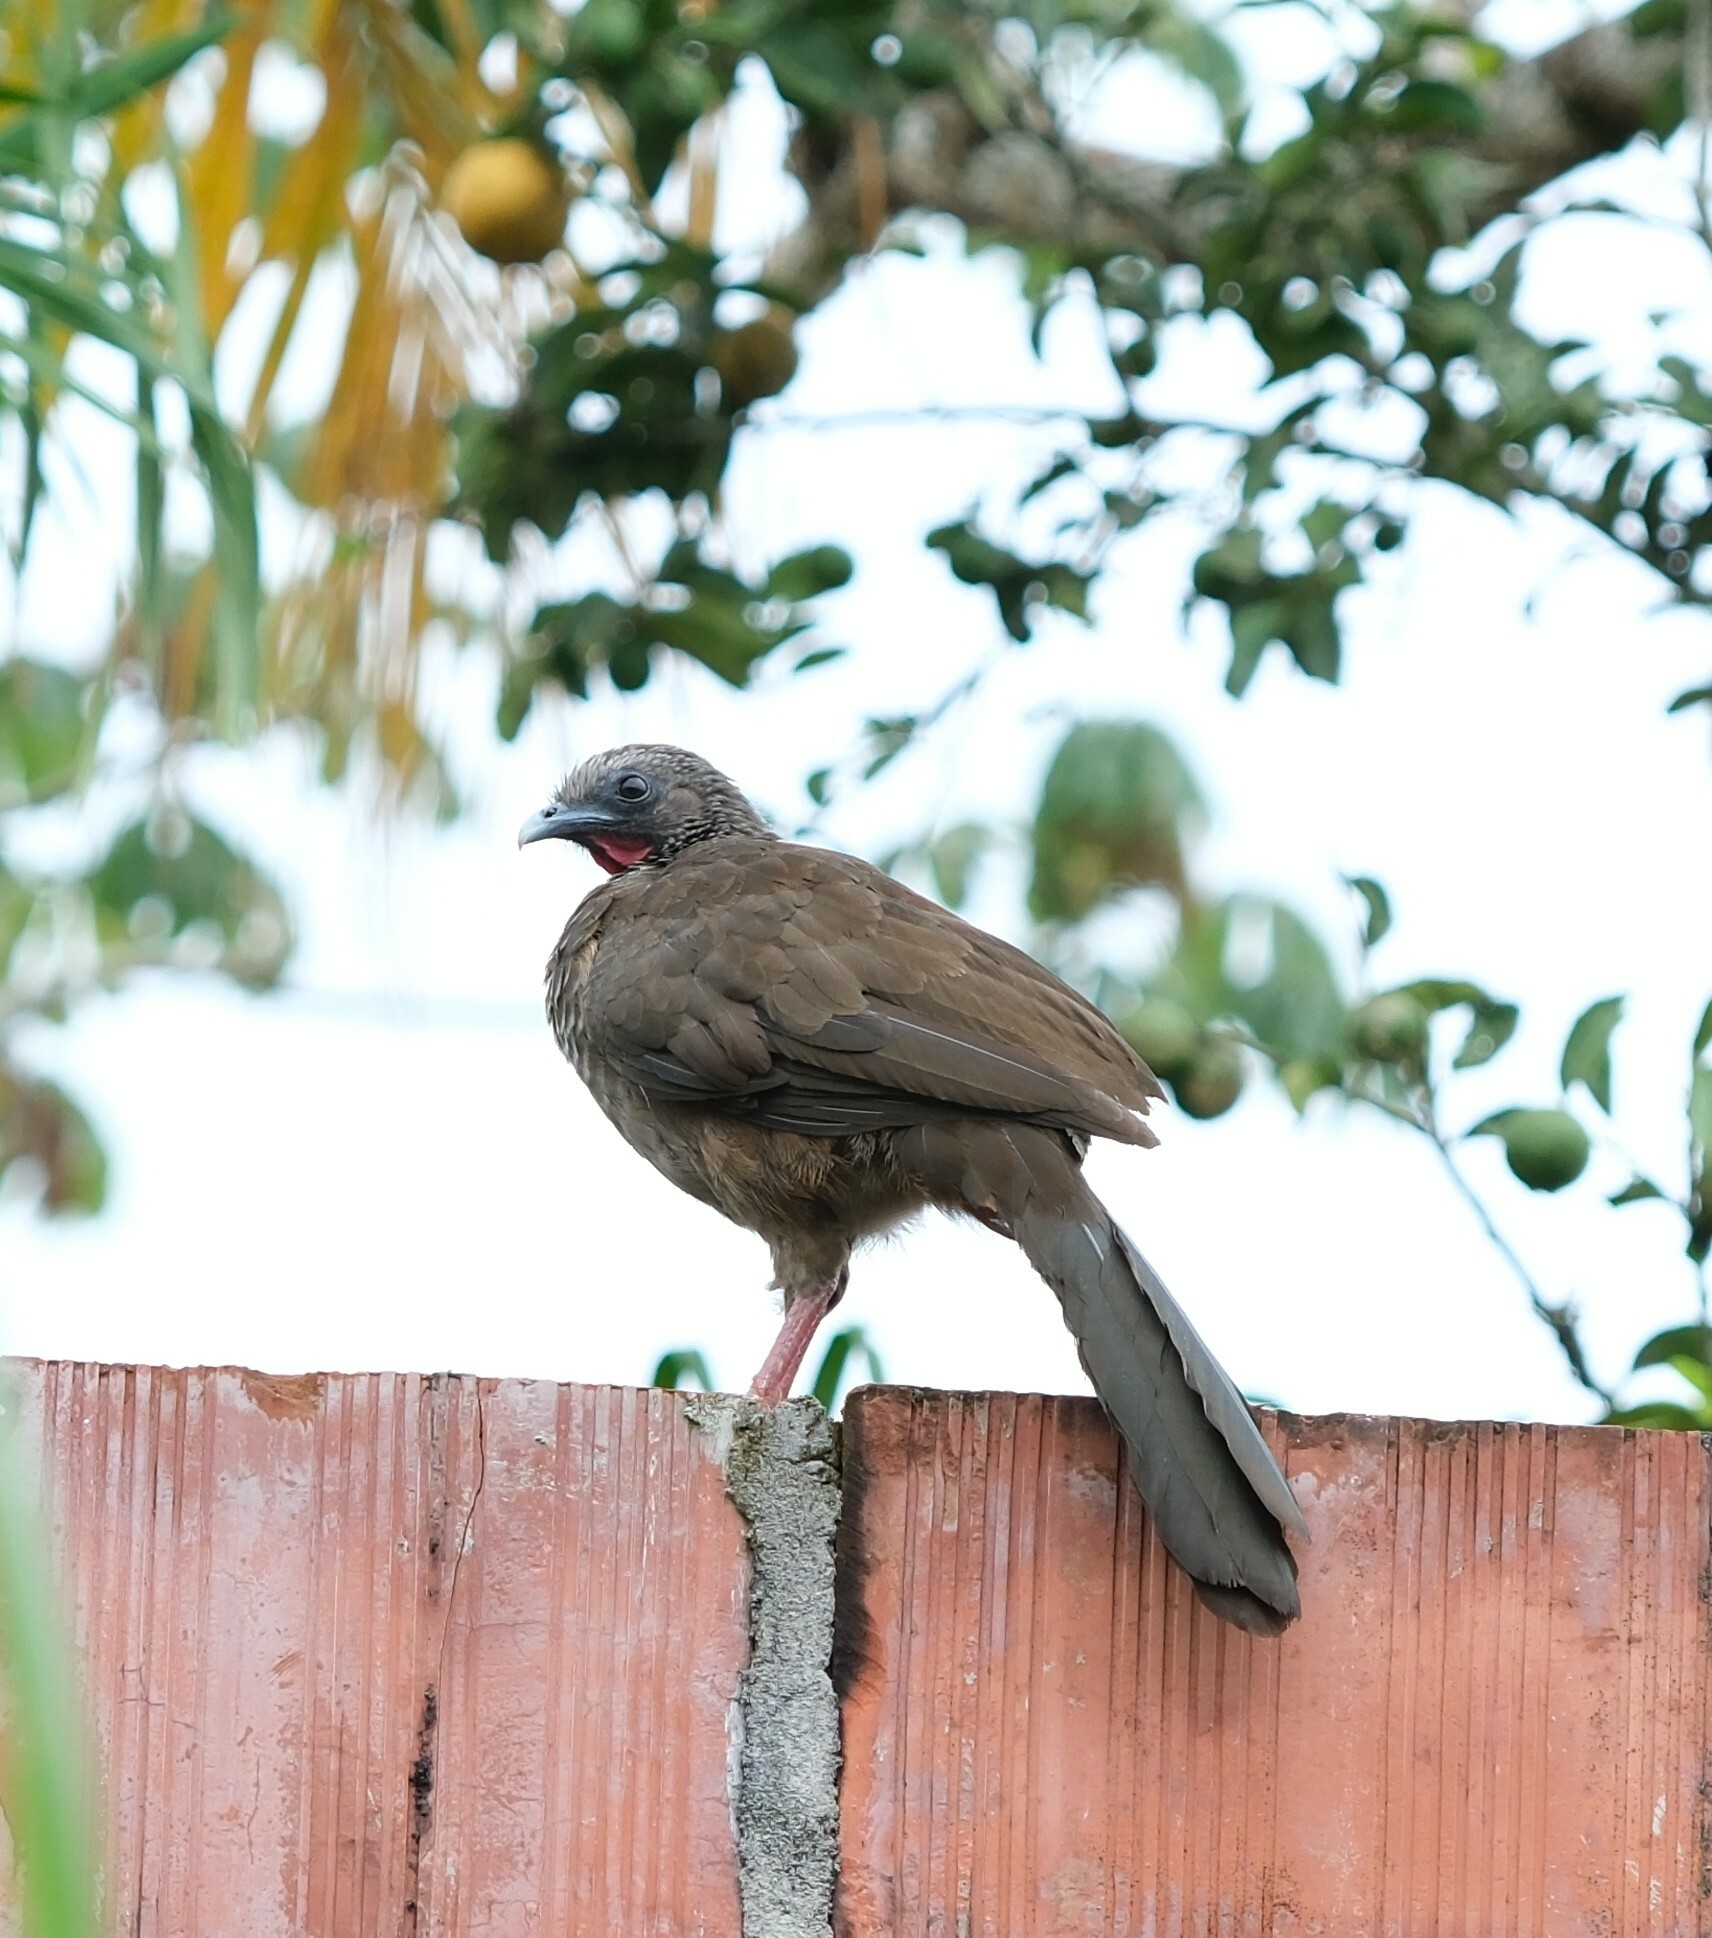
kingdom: Animalia
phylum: Chordata
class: Aves
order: Galliformes
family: Cracidae
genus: Ortalis
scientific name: Ortalis guttata
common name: Speckled chachalaca
